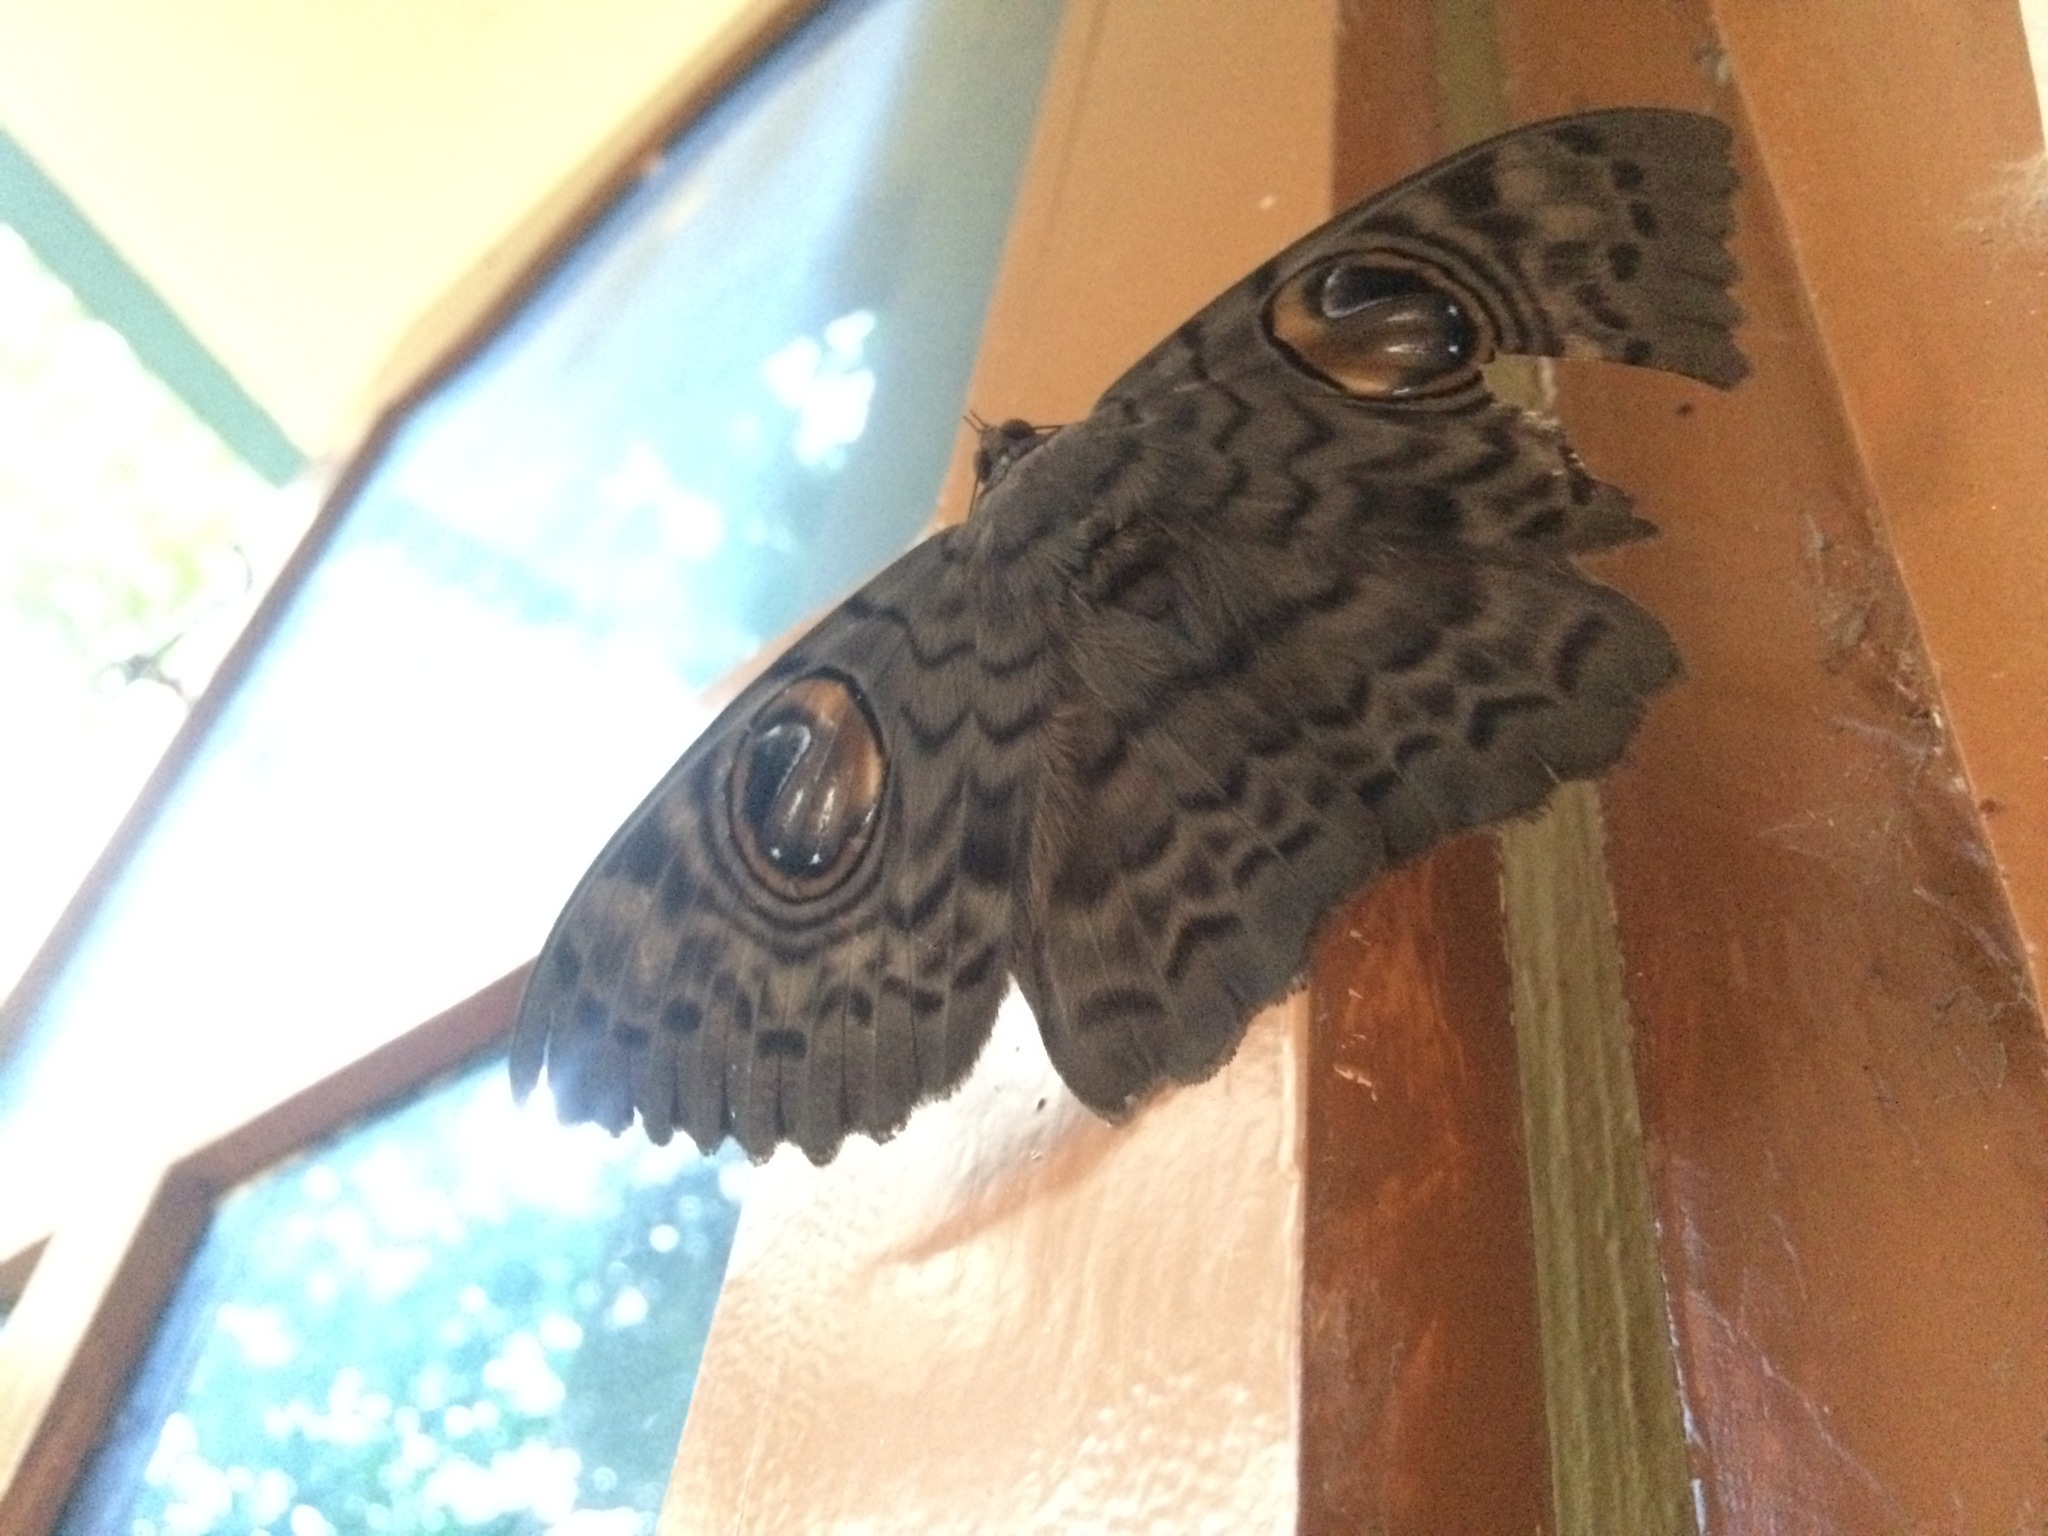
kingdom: Animalia
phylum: Arthropoda
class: Insecta
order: Lepidoptera
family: Erebidae
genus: Erebus
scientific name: Erebus macrops
